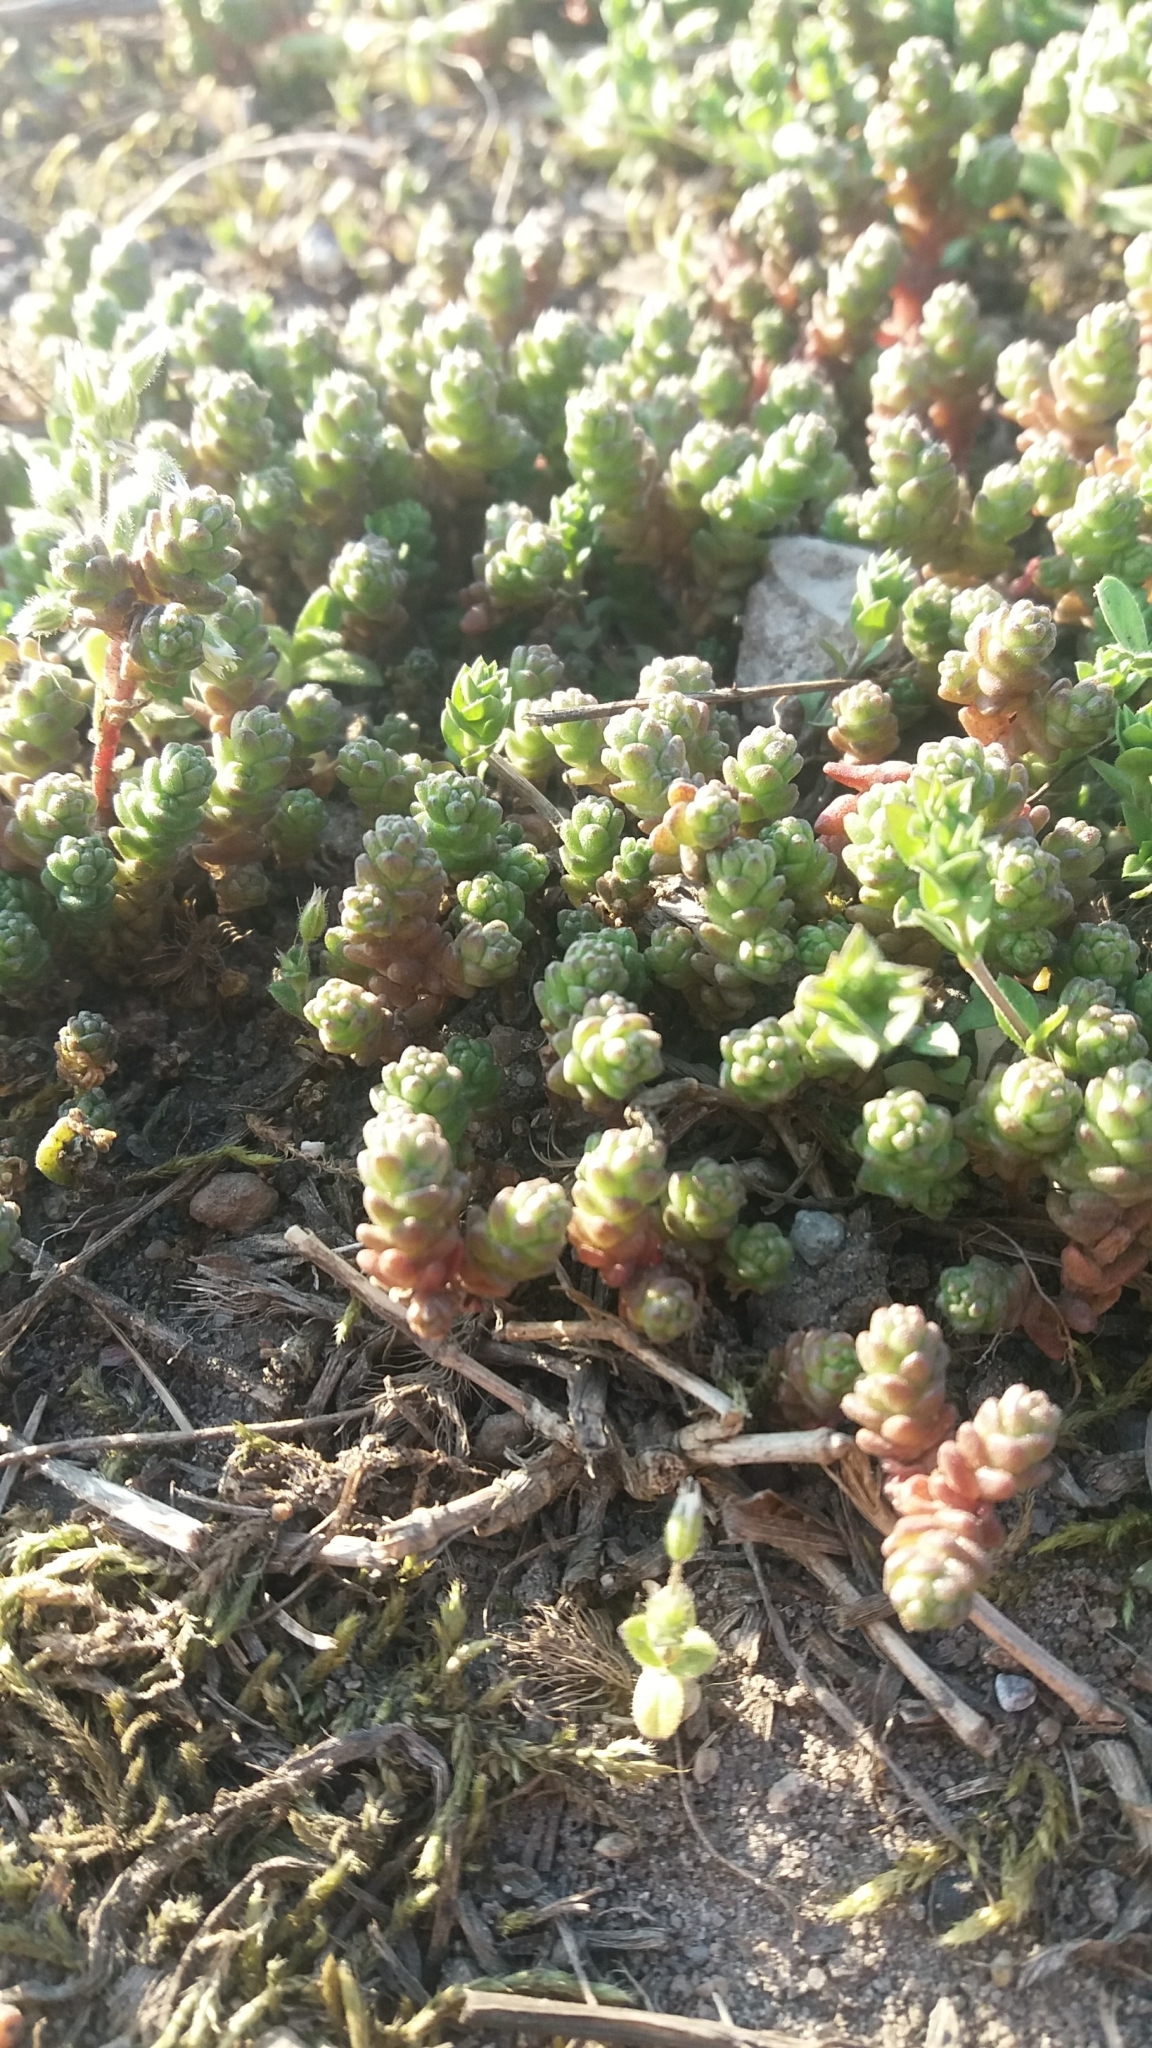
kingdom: Plantae
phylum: Tracheophyta
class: Magnoliopsida
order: Saxifragales
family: Crassulaceae
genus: Sedum
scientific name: Sedum acre
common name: Biting stonecrop
